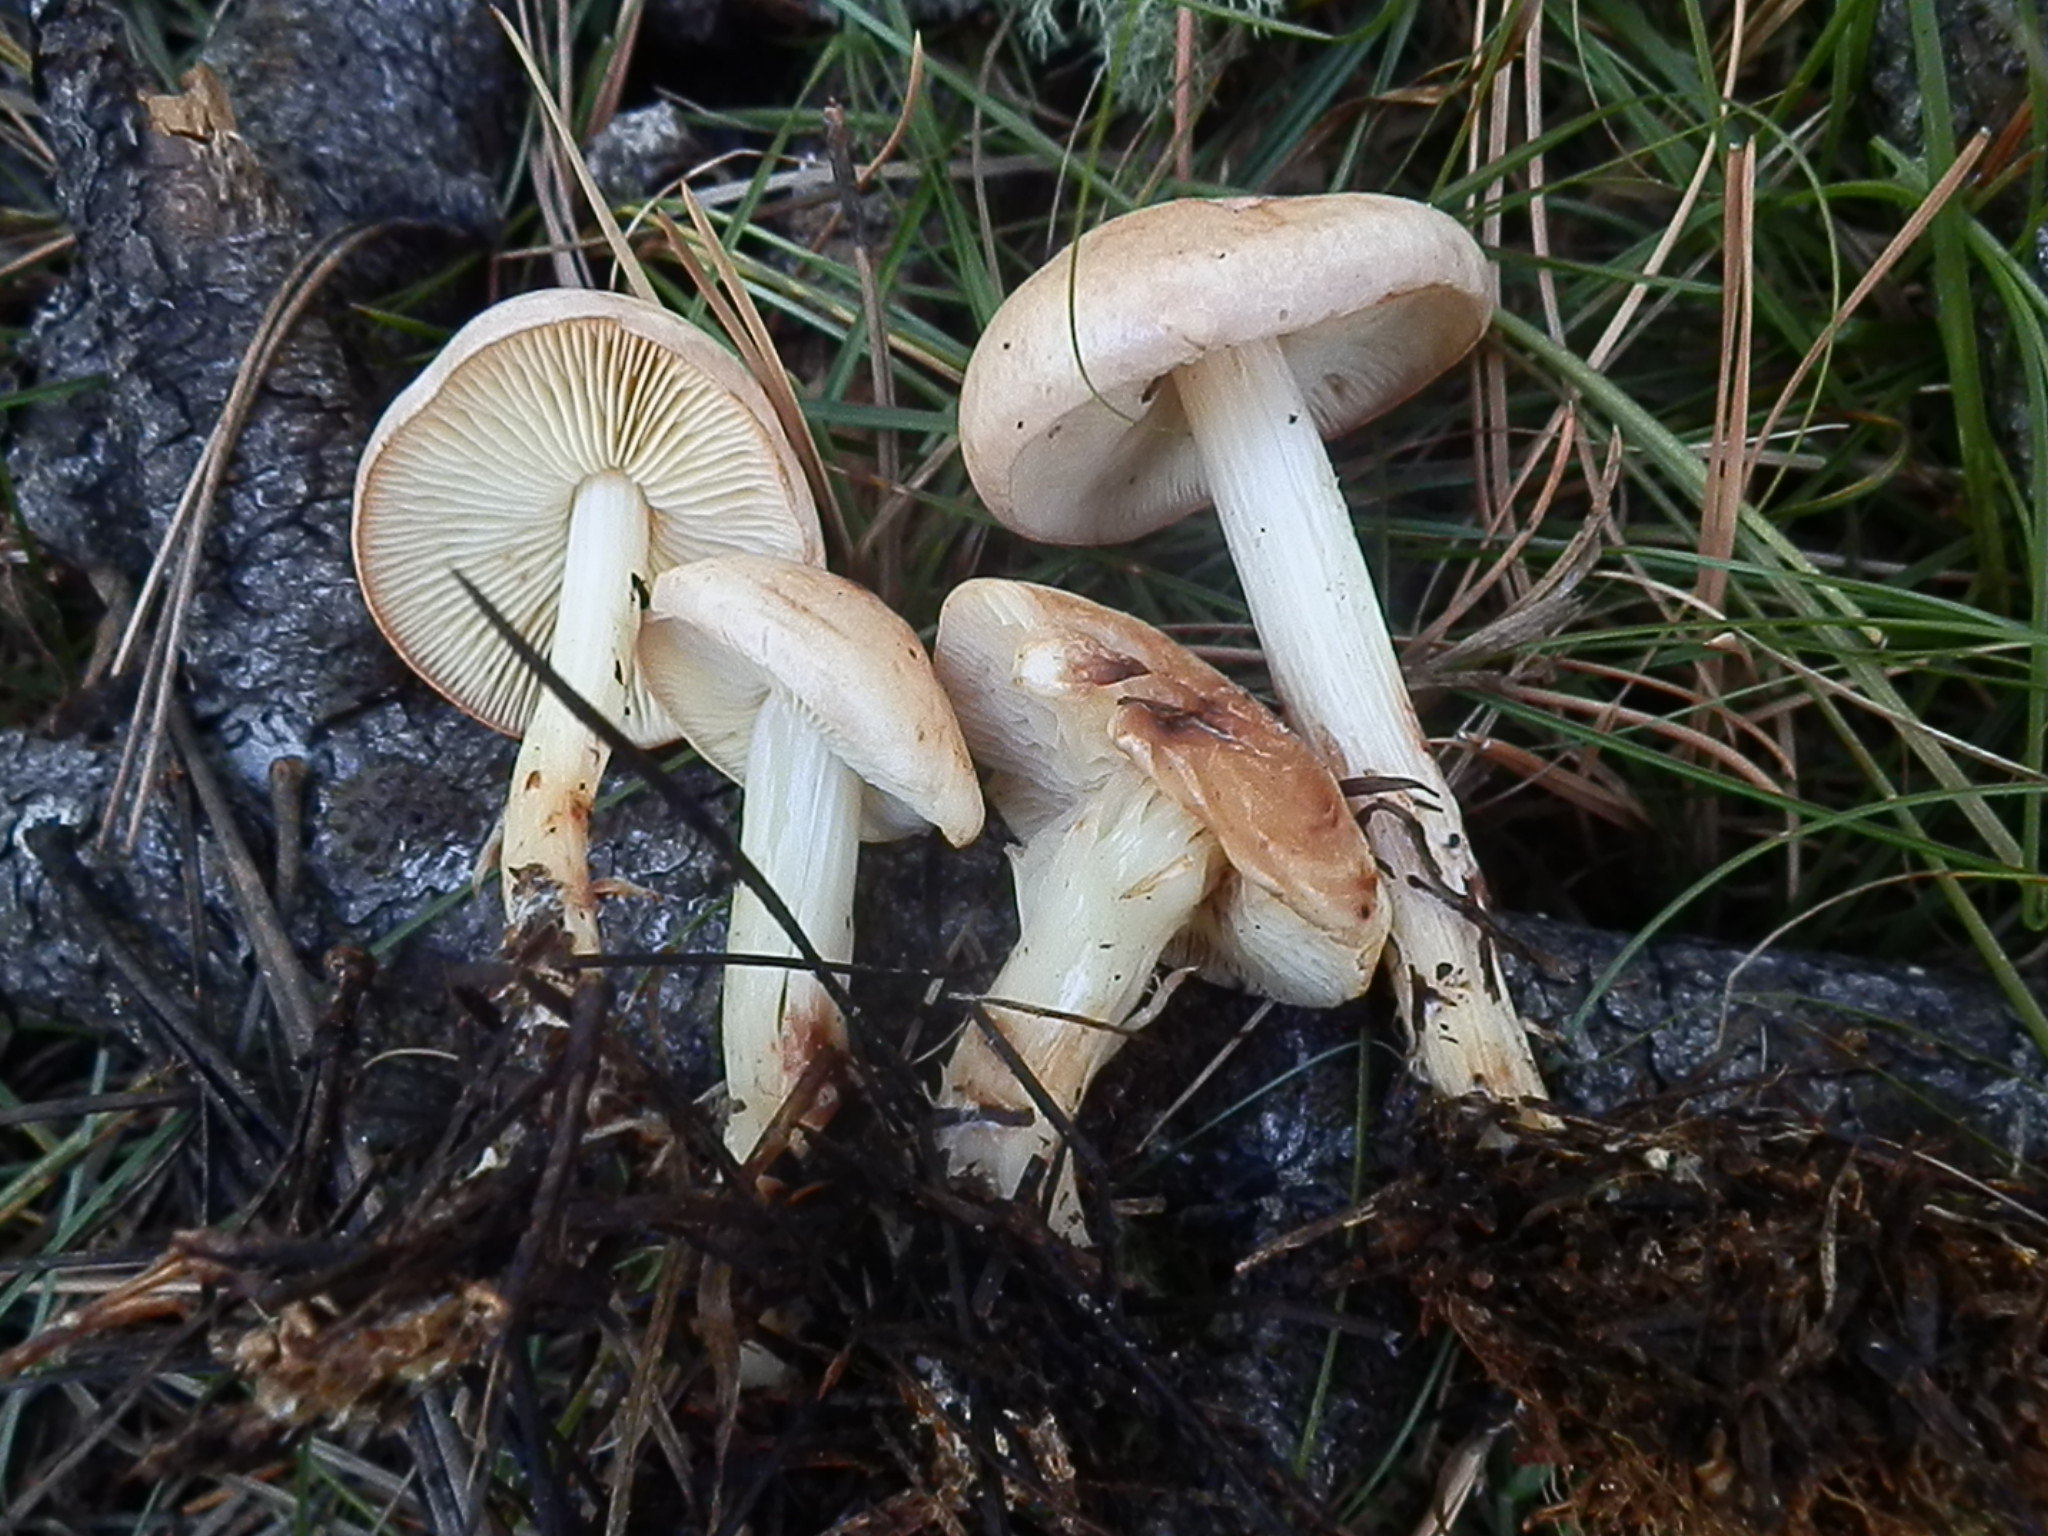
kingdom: Fungi
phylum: Basidiomycota
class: Agaricomycetes
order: Agaricales
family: Omphalotaceae
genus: Rhodocollybia
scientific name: Rhodocollybia maculata
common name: Spotted tough-shank
